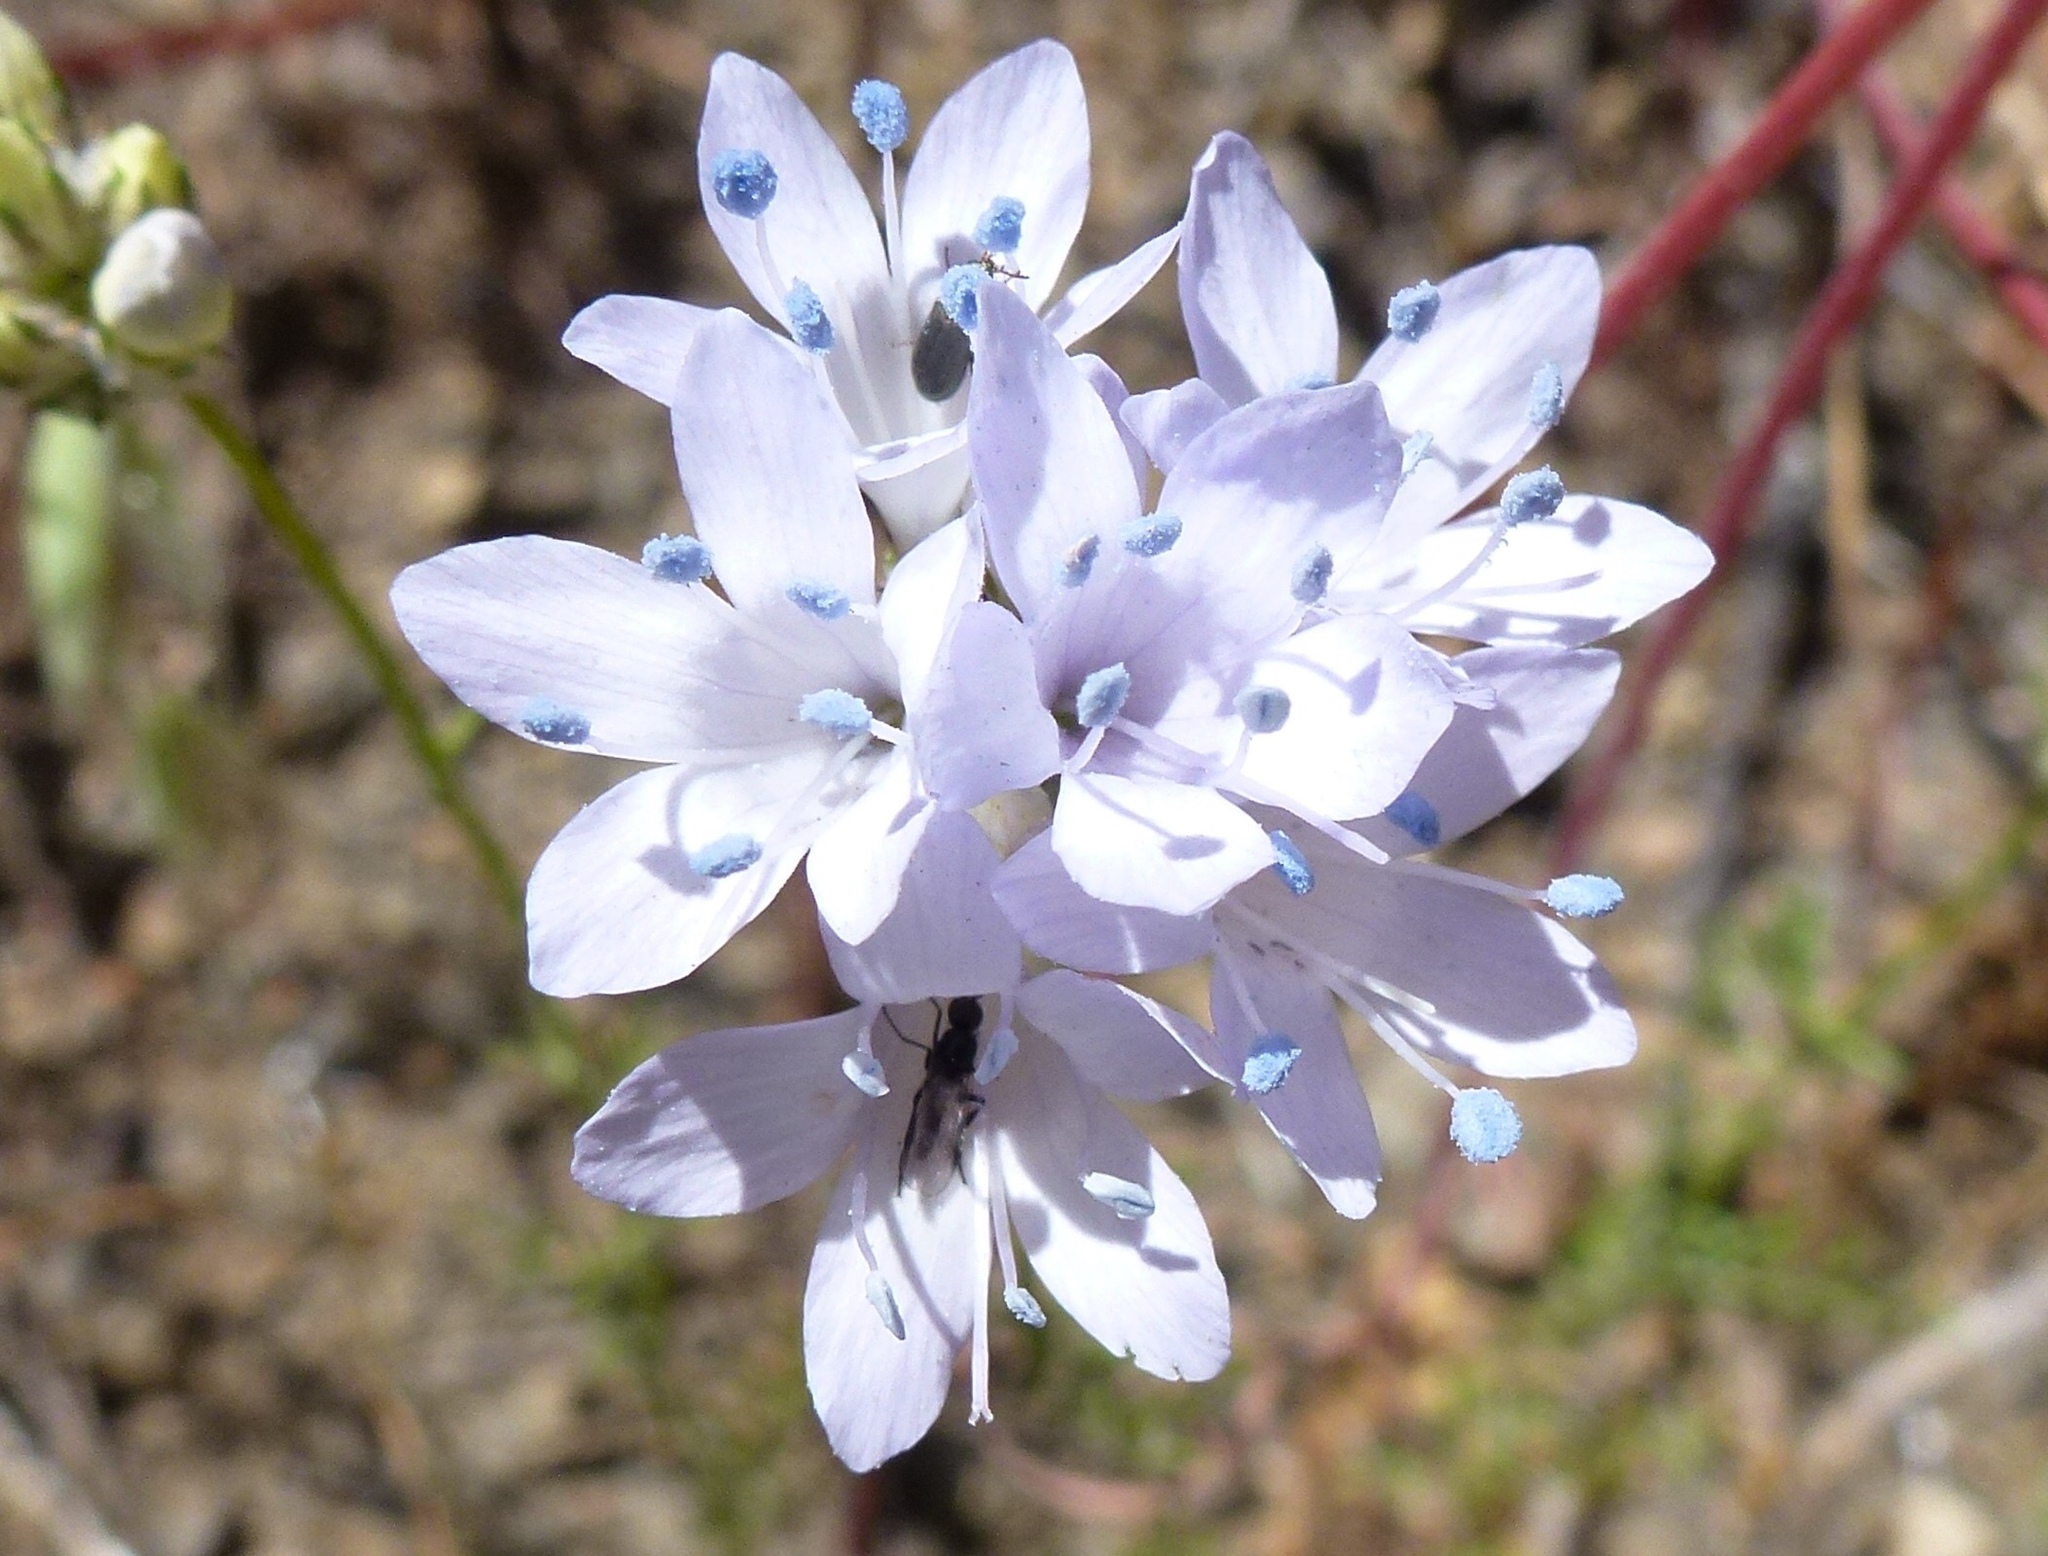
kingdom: Plantae
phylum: Tracheophyta
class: Magnoliopsida
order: Ericales
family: Polemoniaceae
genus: Gilia
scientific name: Gilia achilleifolia
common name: California gily-flower
